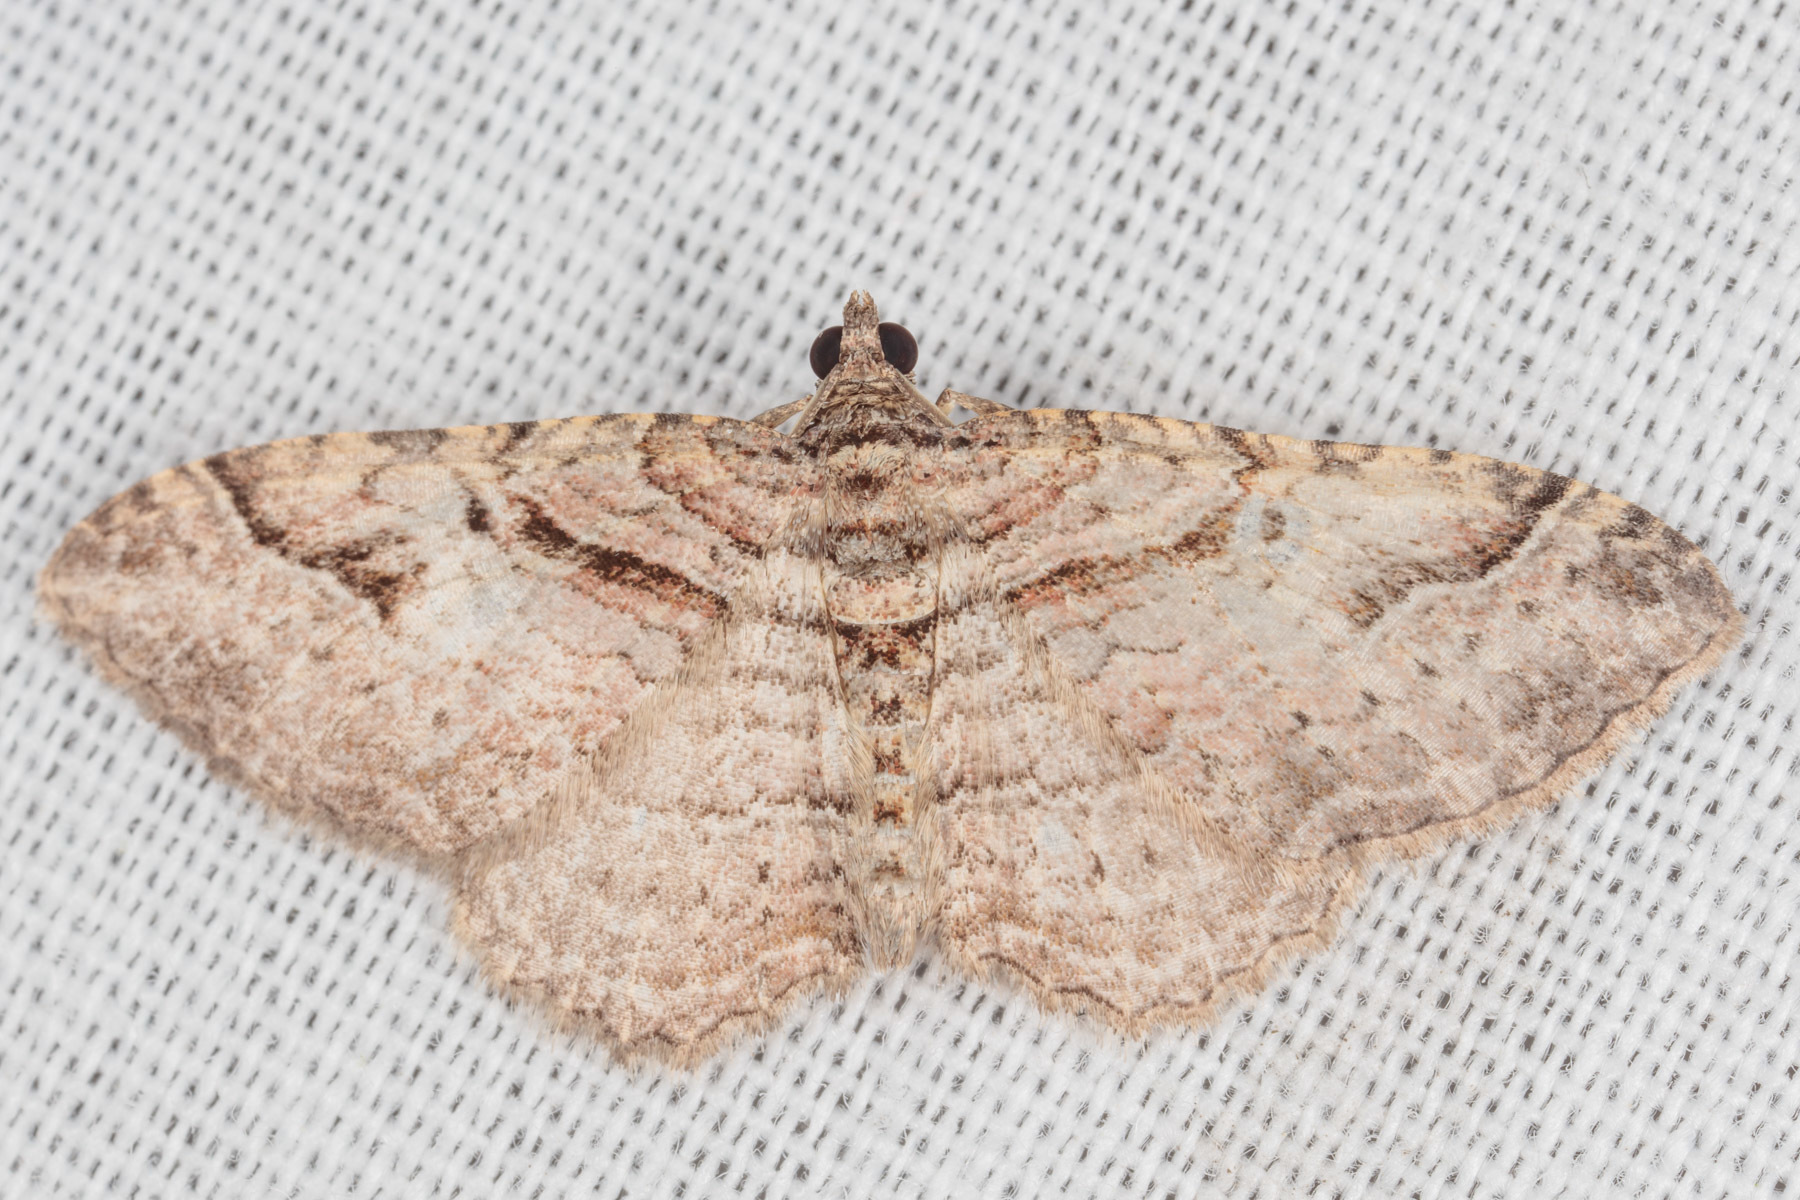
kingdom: Animalia
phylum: Arthropoda
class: Insecta
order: Lepidoptera
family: Geometridae
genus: Costaconvexa
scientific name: Costaconvexa centrostrigaria
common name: Bent-line carpet
